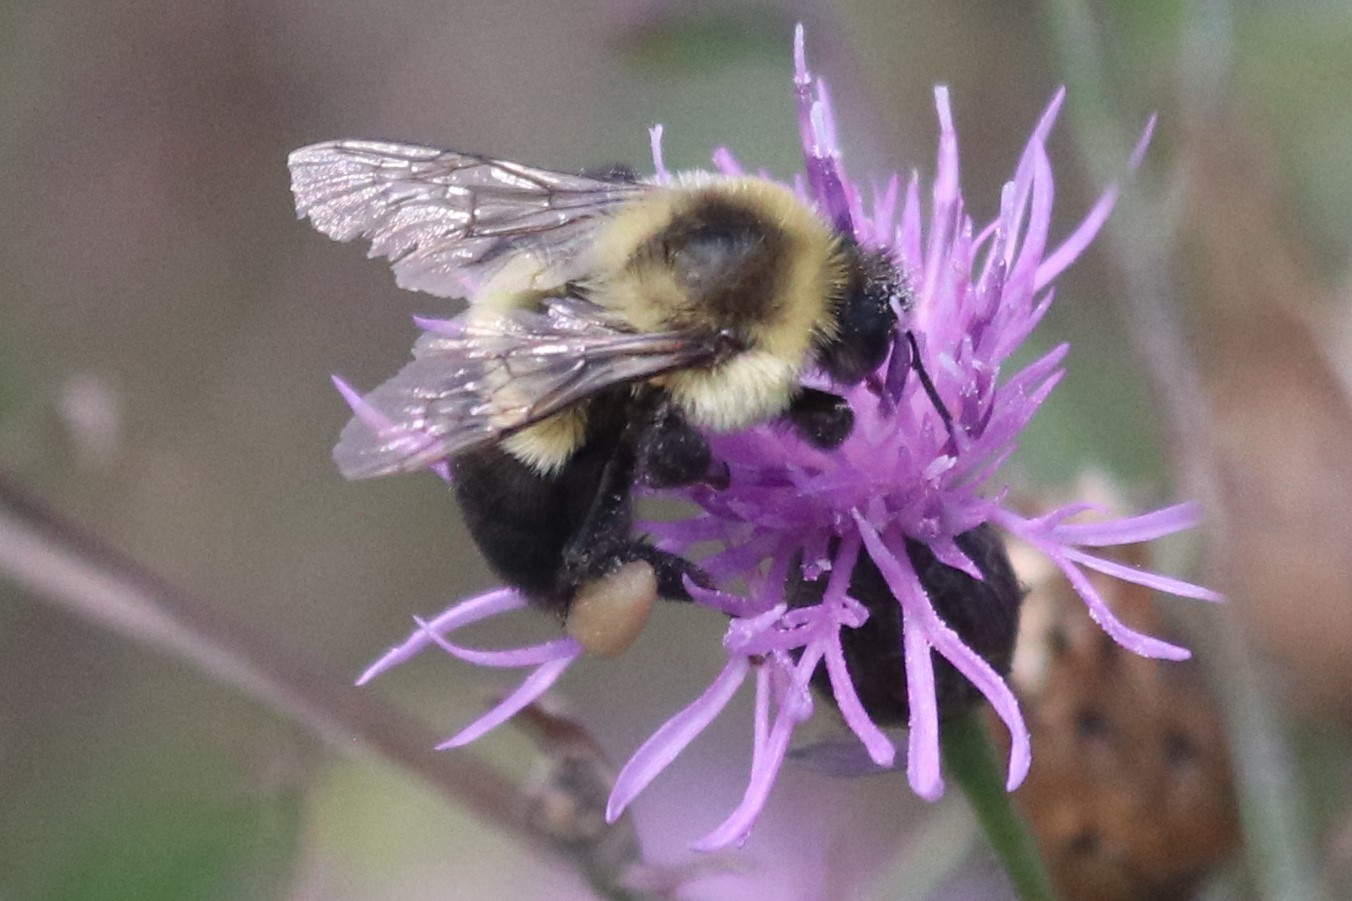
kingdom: Animalia
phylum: Arthropoda
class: Insecta
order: Hymenoptera
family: Apidae
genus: Bombus
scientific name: Bombus impatiens
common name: Common eastern bumble bee
